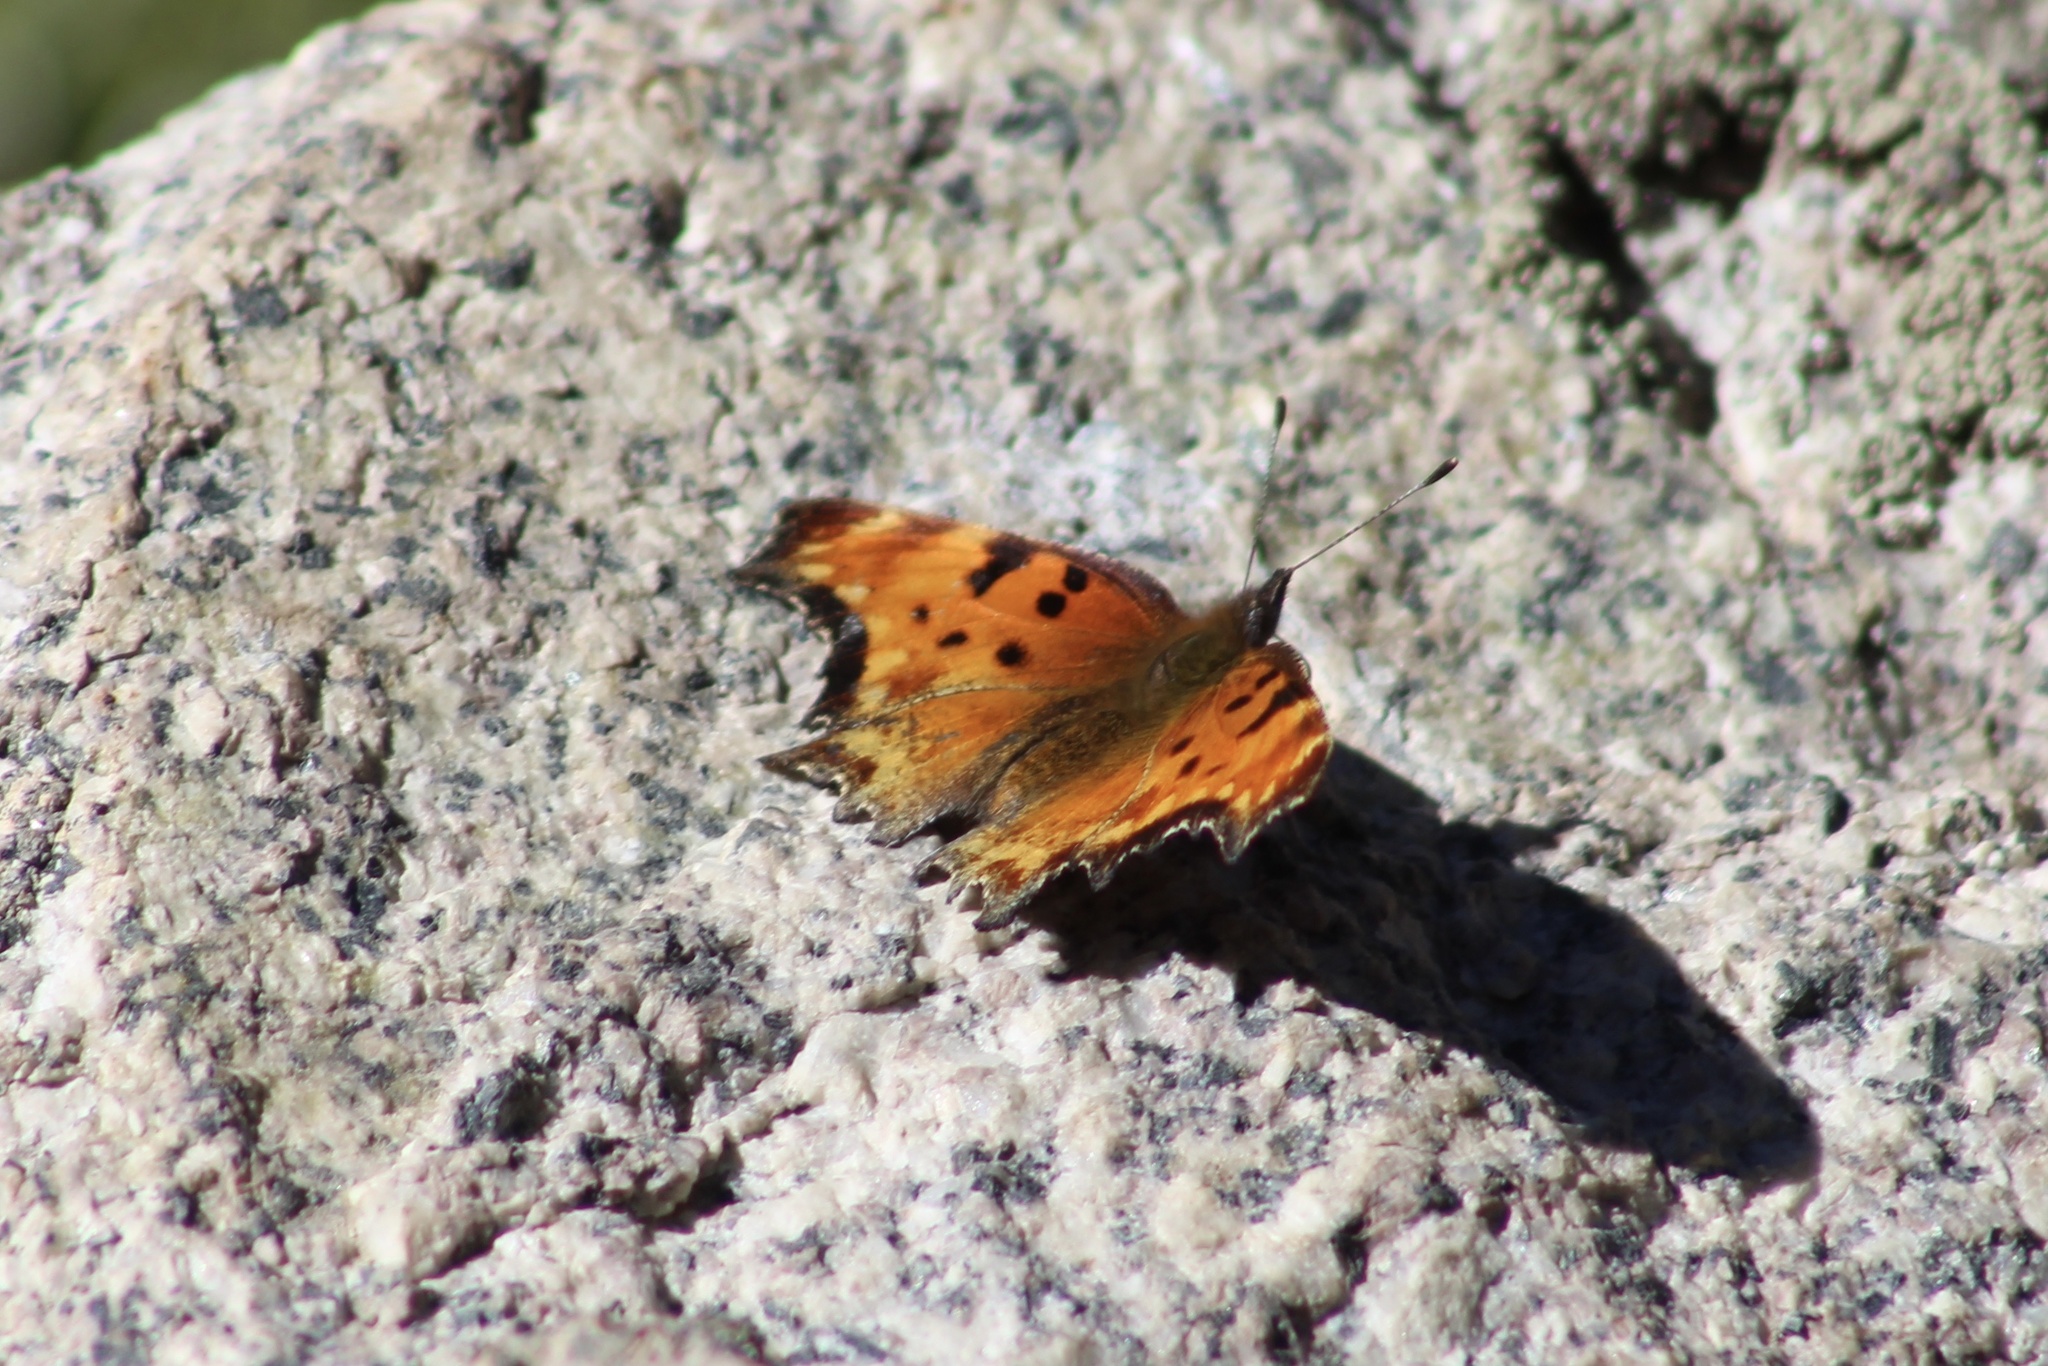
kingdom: Animalia
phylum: Arthropoda
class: Insecta
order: Lepidoptera
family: Nymphalidae
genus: Polygonia
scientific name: Polygonia gracilis
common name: Hoary comma
